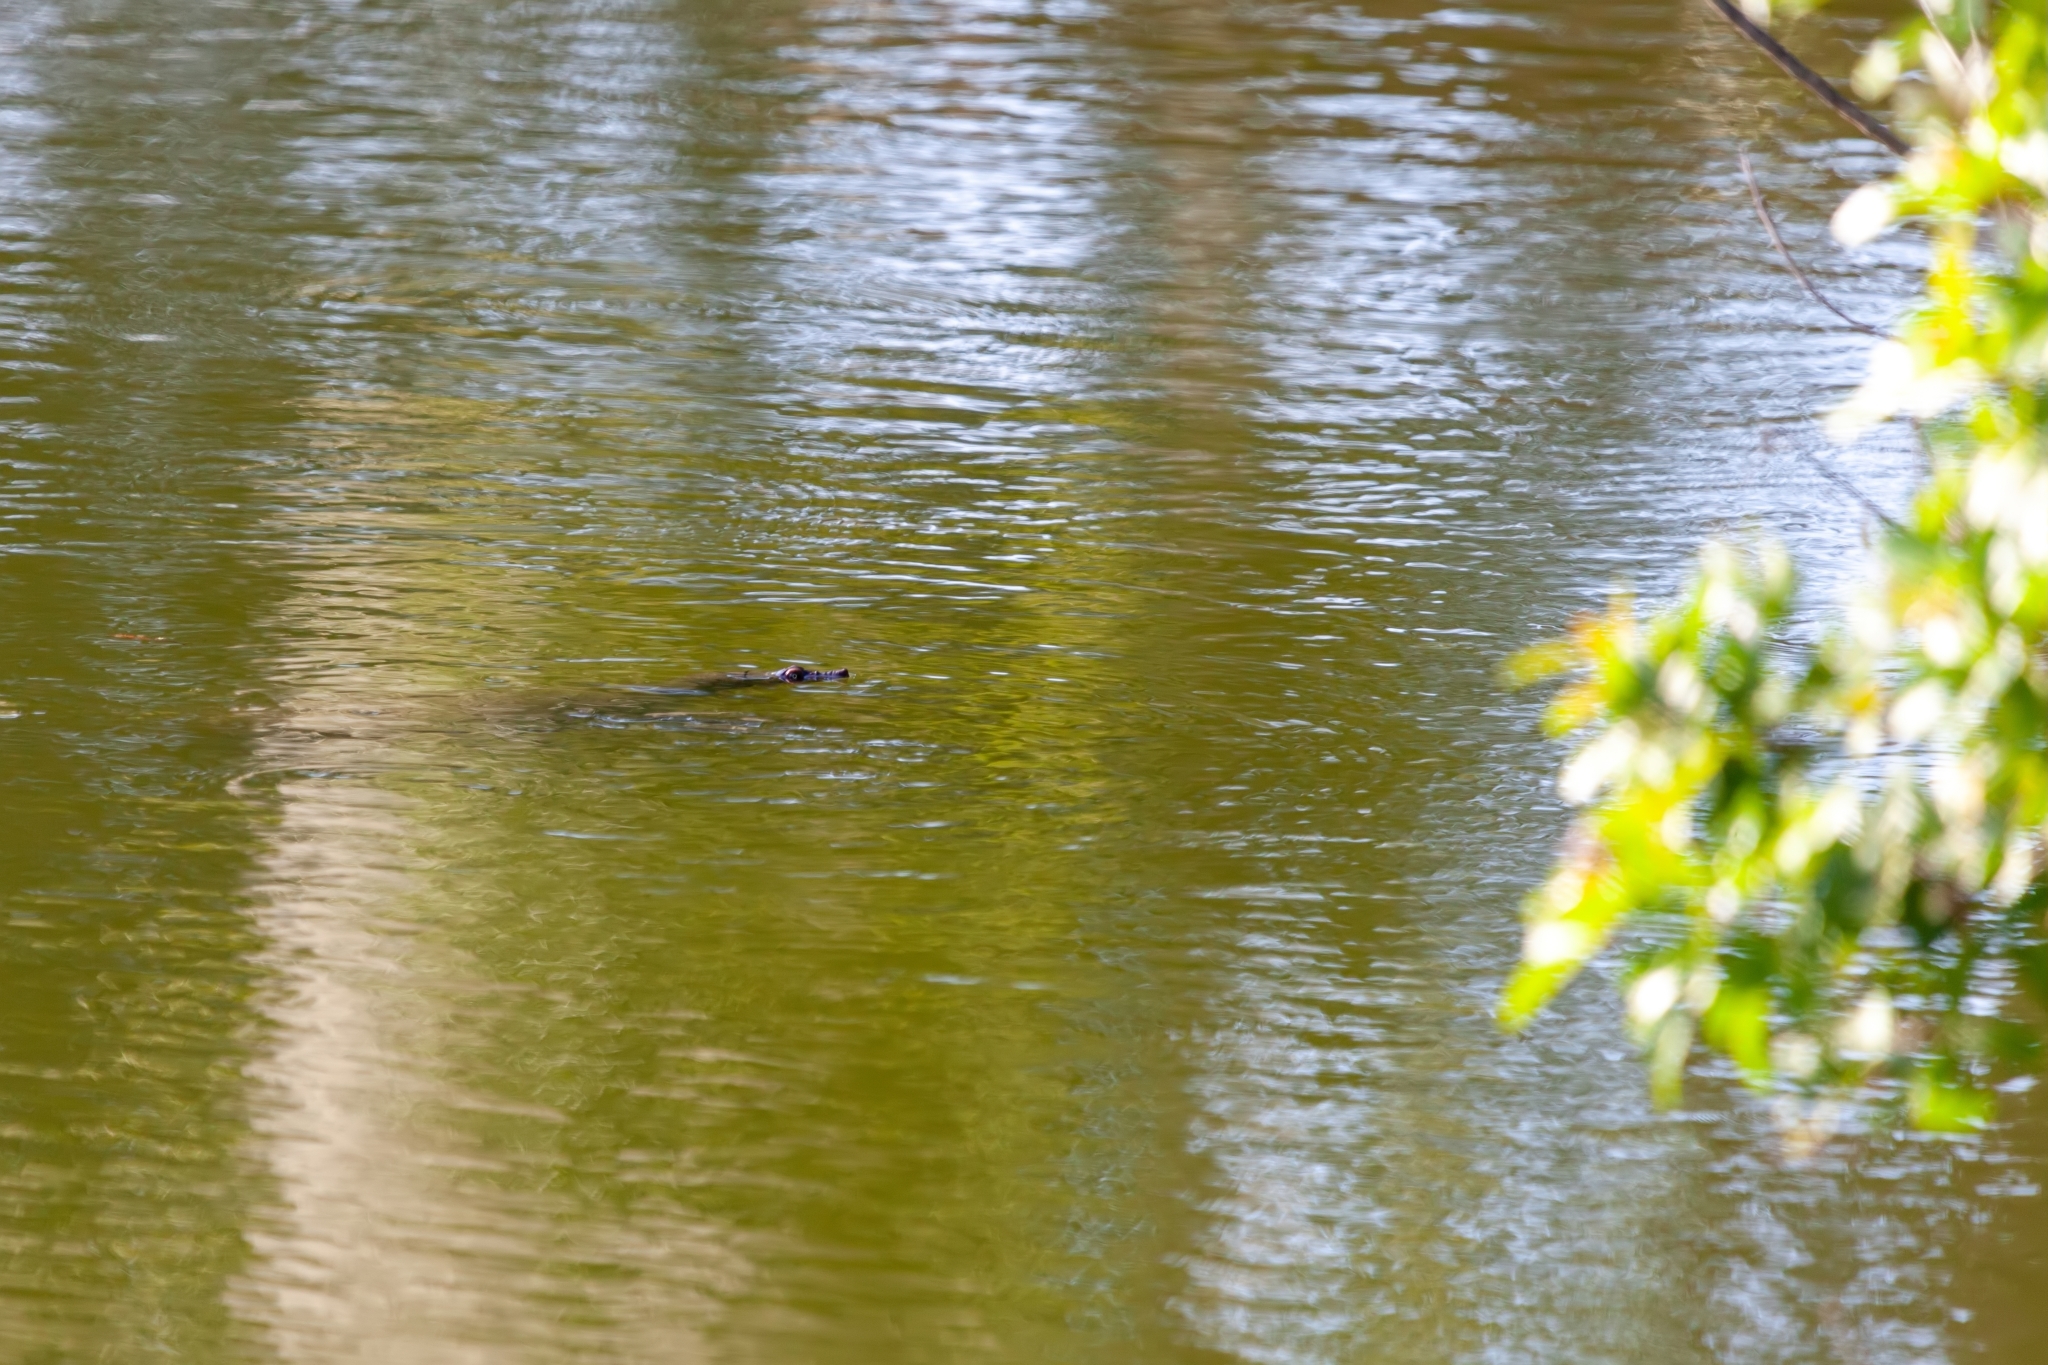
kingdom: Animalia
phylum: Chordata
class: Testudines
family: Trionychidae
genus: Apalone
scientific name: Apalone ferox
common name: Florida softshell turtle
